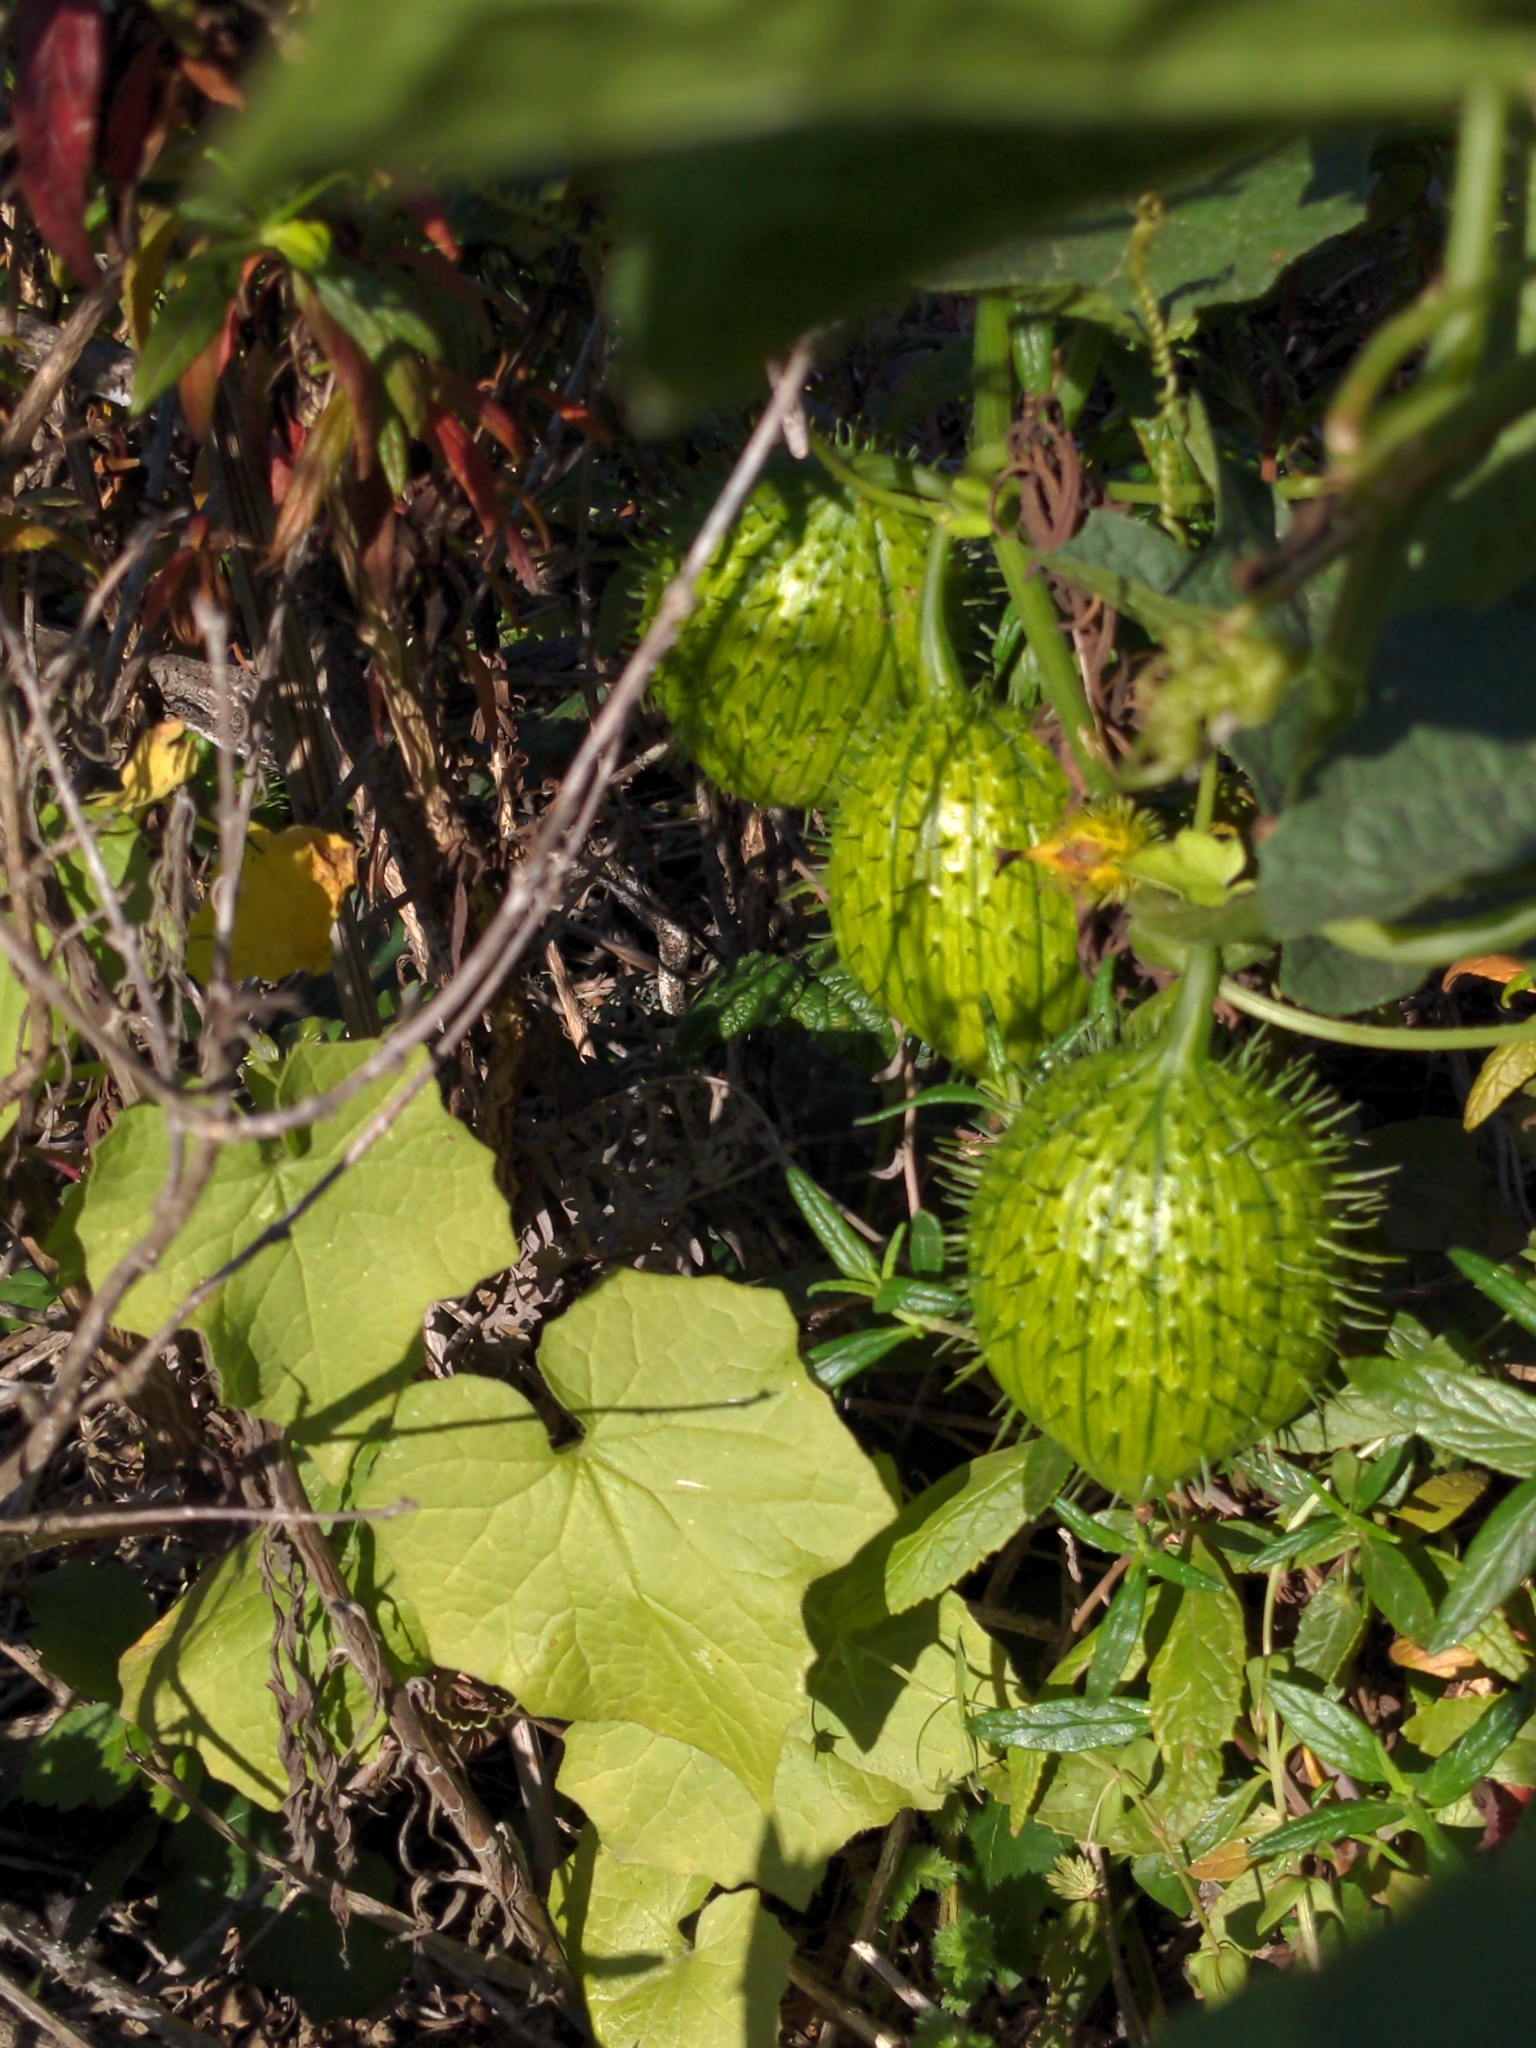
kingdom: Plantae
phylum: Tracheophyta
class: Magnoliopsida
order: Cucurbitales
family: Cucurbitaceae
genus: Marah
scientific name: Marah oregana
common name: Coastal manroot
